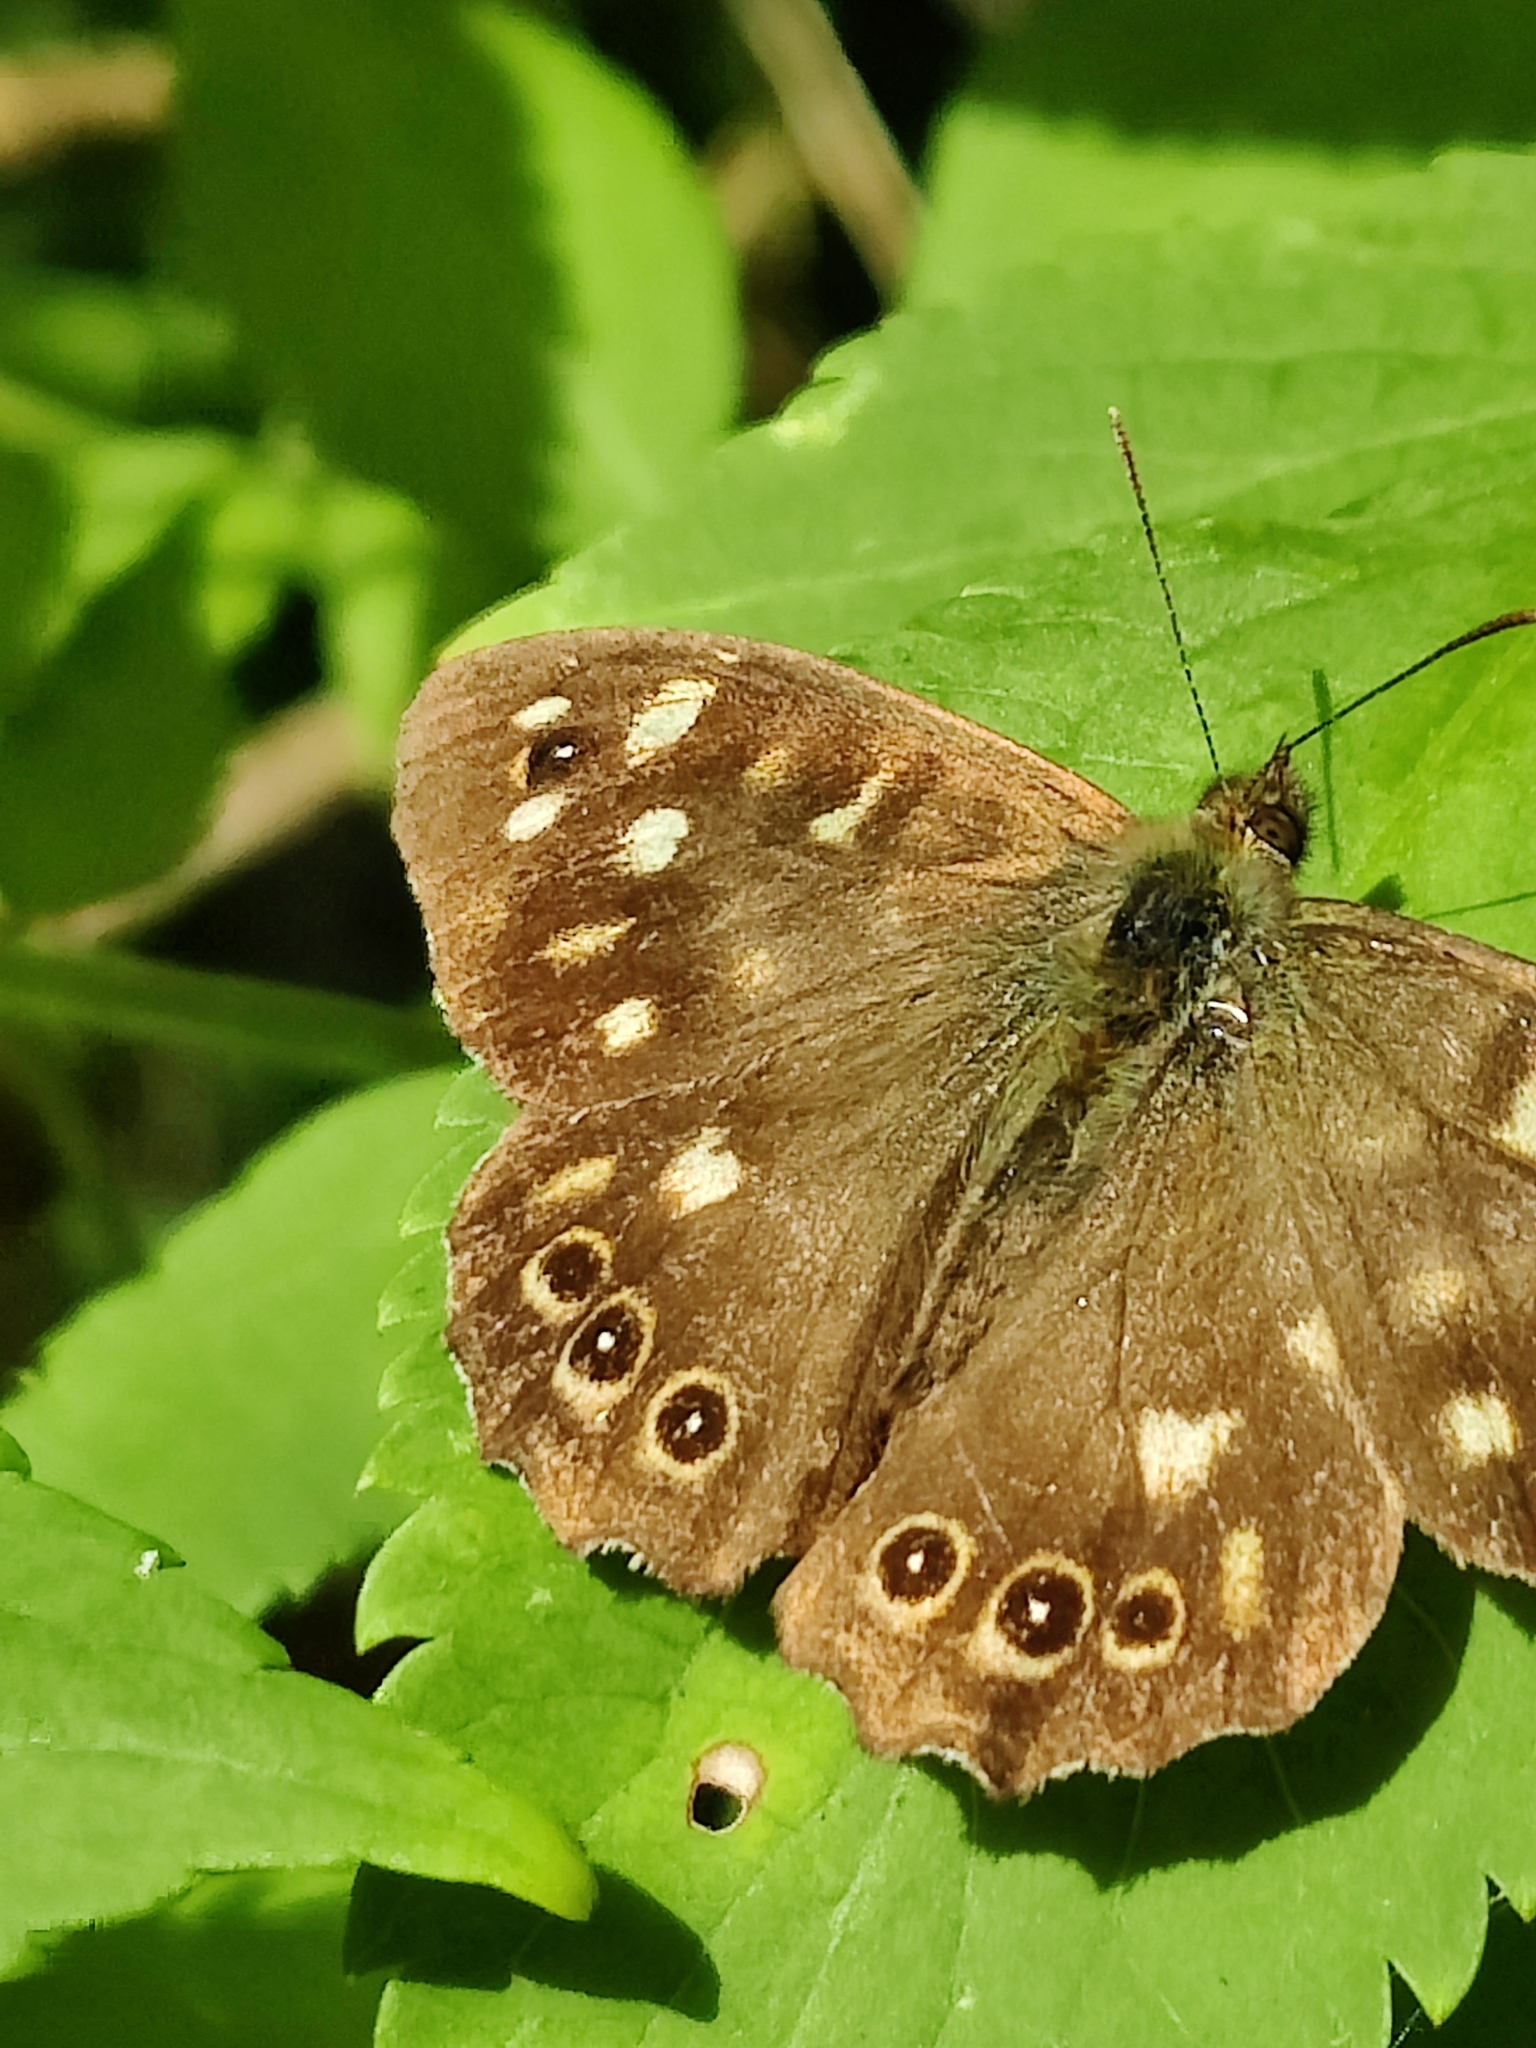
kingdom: Animalia
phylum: Arthropoda
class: Insecta
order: Lepidoptera
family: Nymphalidae
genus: Pararge
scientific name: Pararge aegeria
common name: Speckled wood
